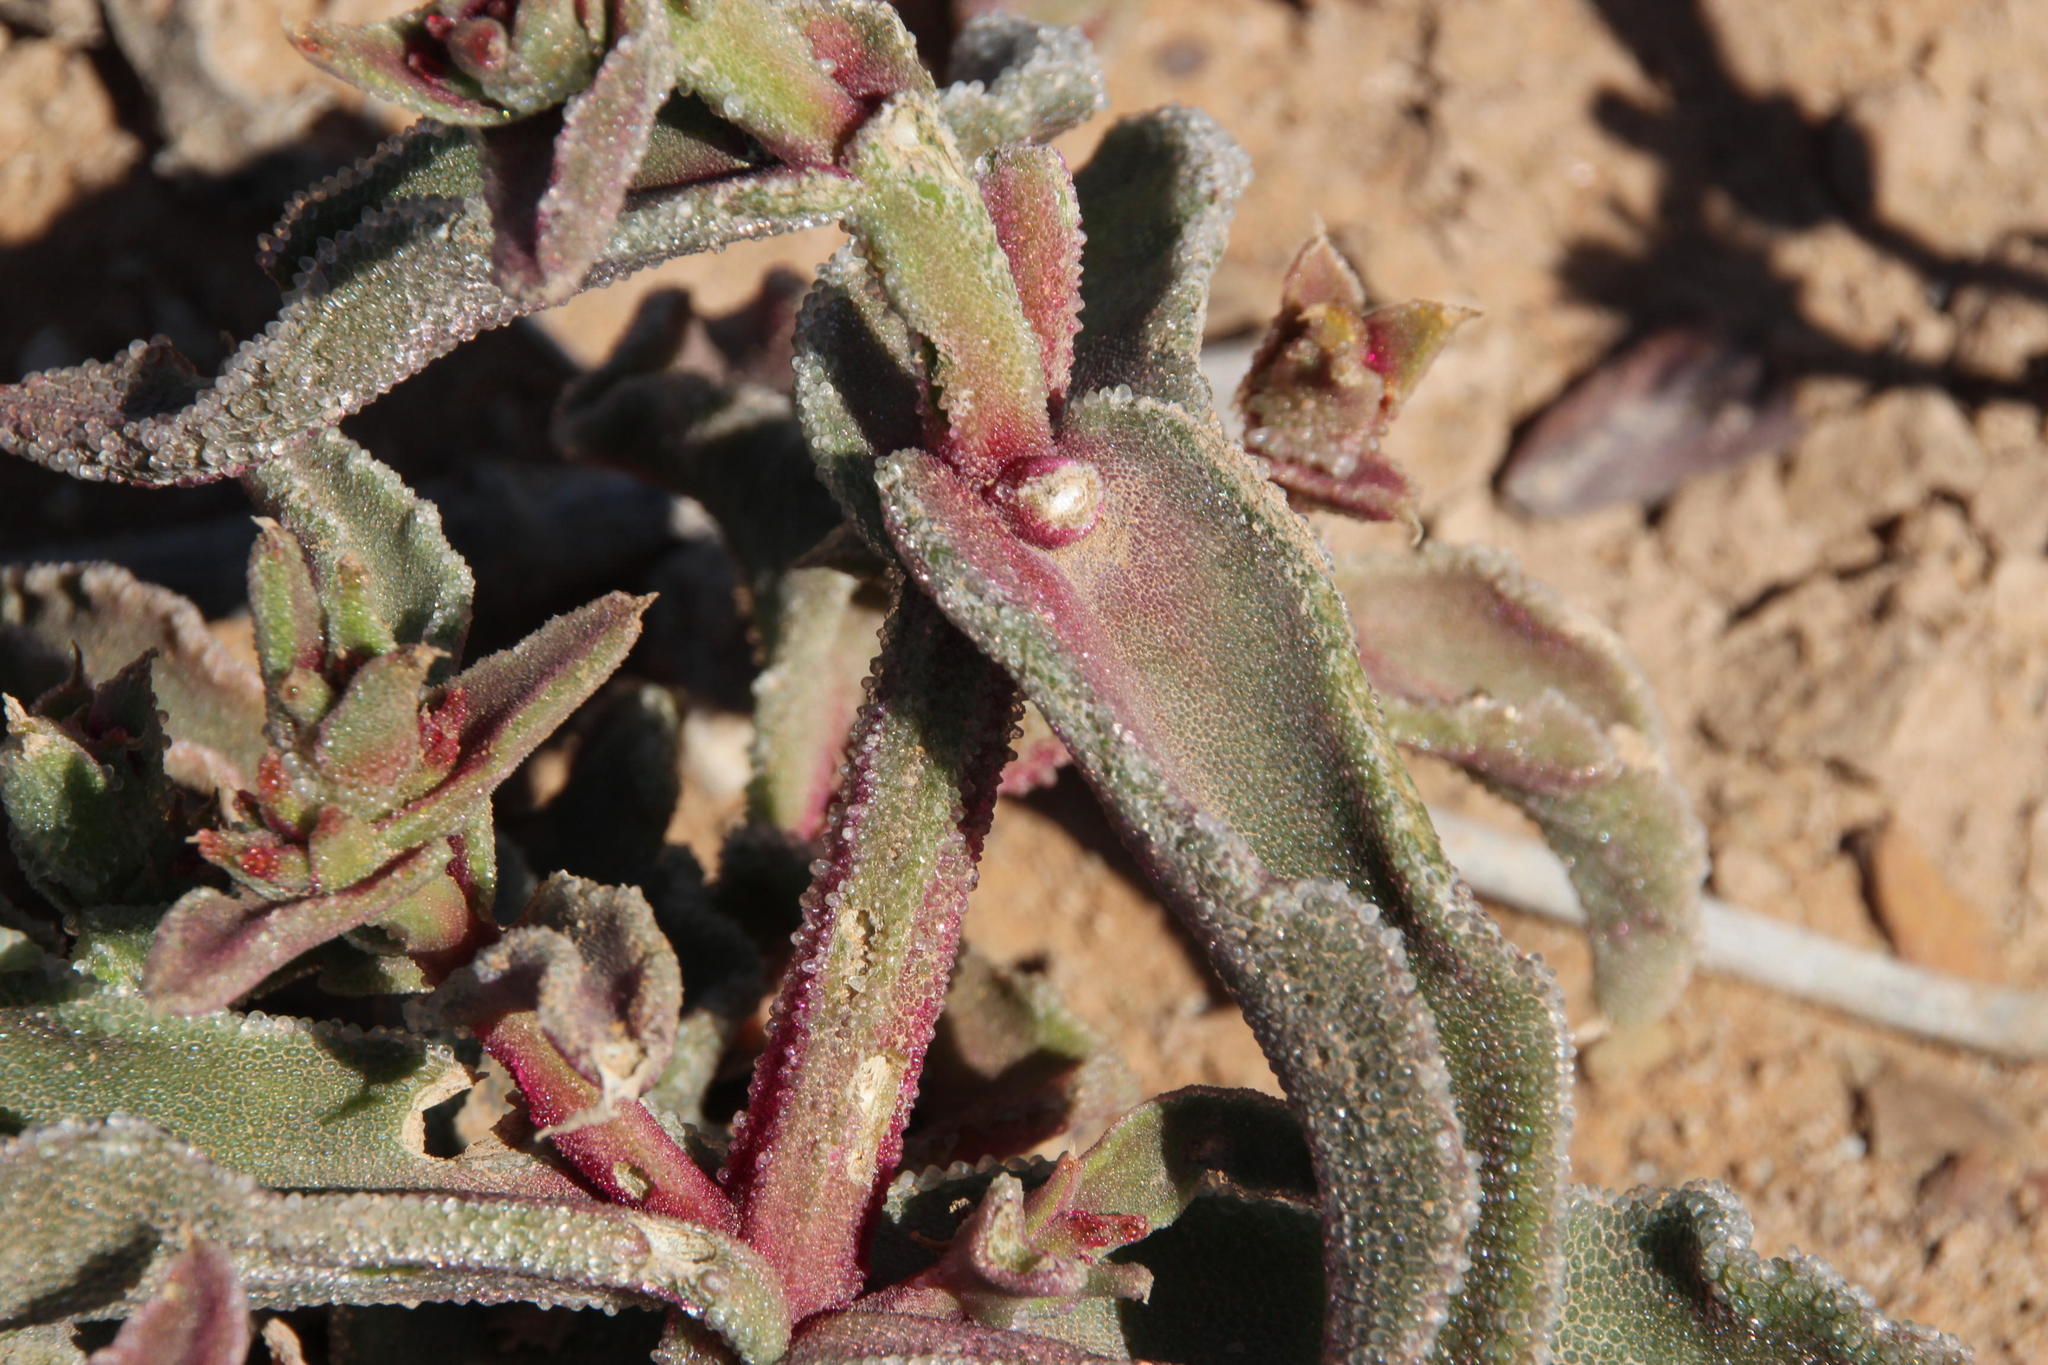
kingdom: Plantae
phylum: Tracheophyta
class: Magnoliopsida
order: Caryophyllales
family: Aizoaceae
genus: Mesembryanthemum
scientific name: Mesembryanthemum guerichianum
